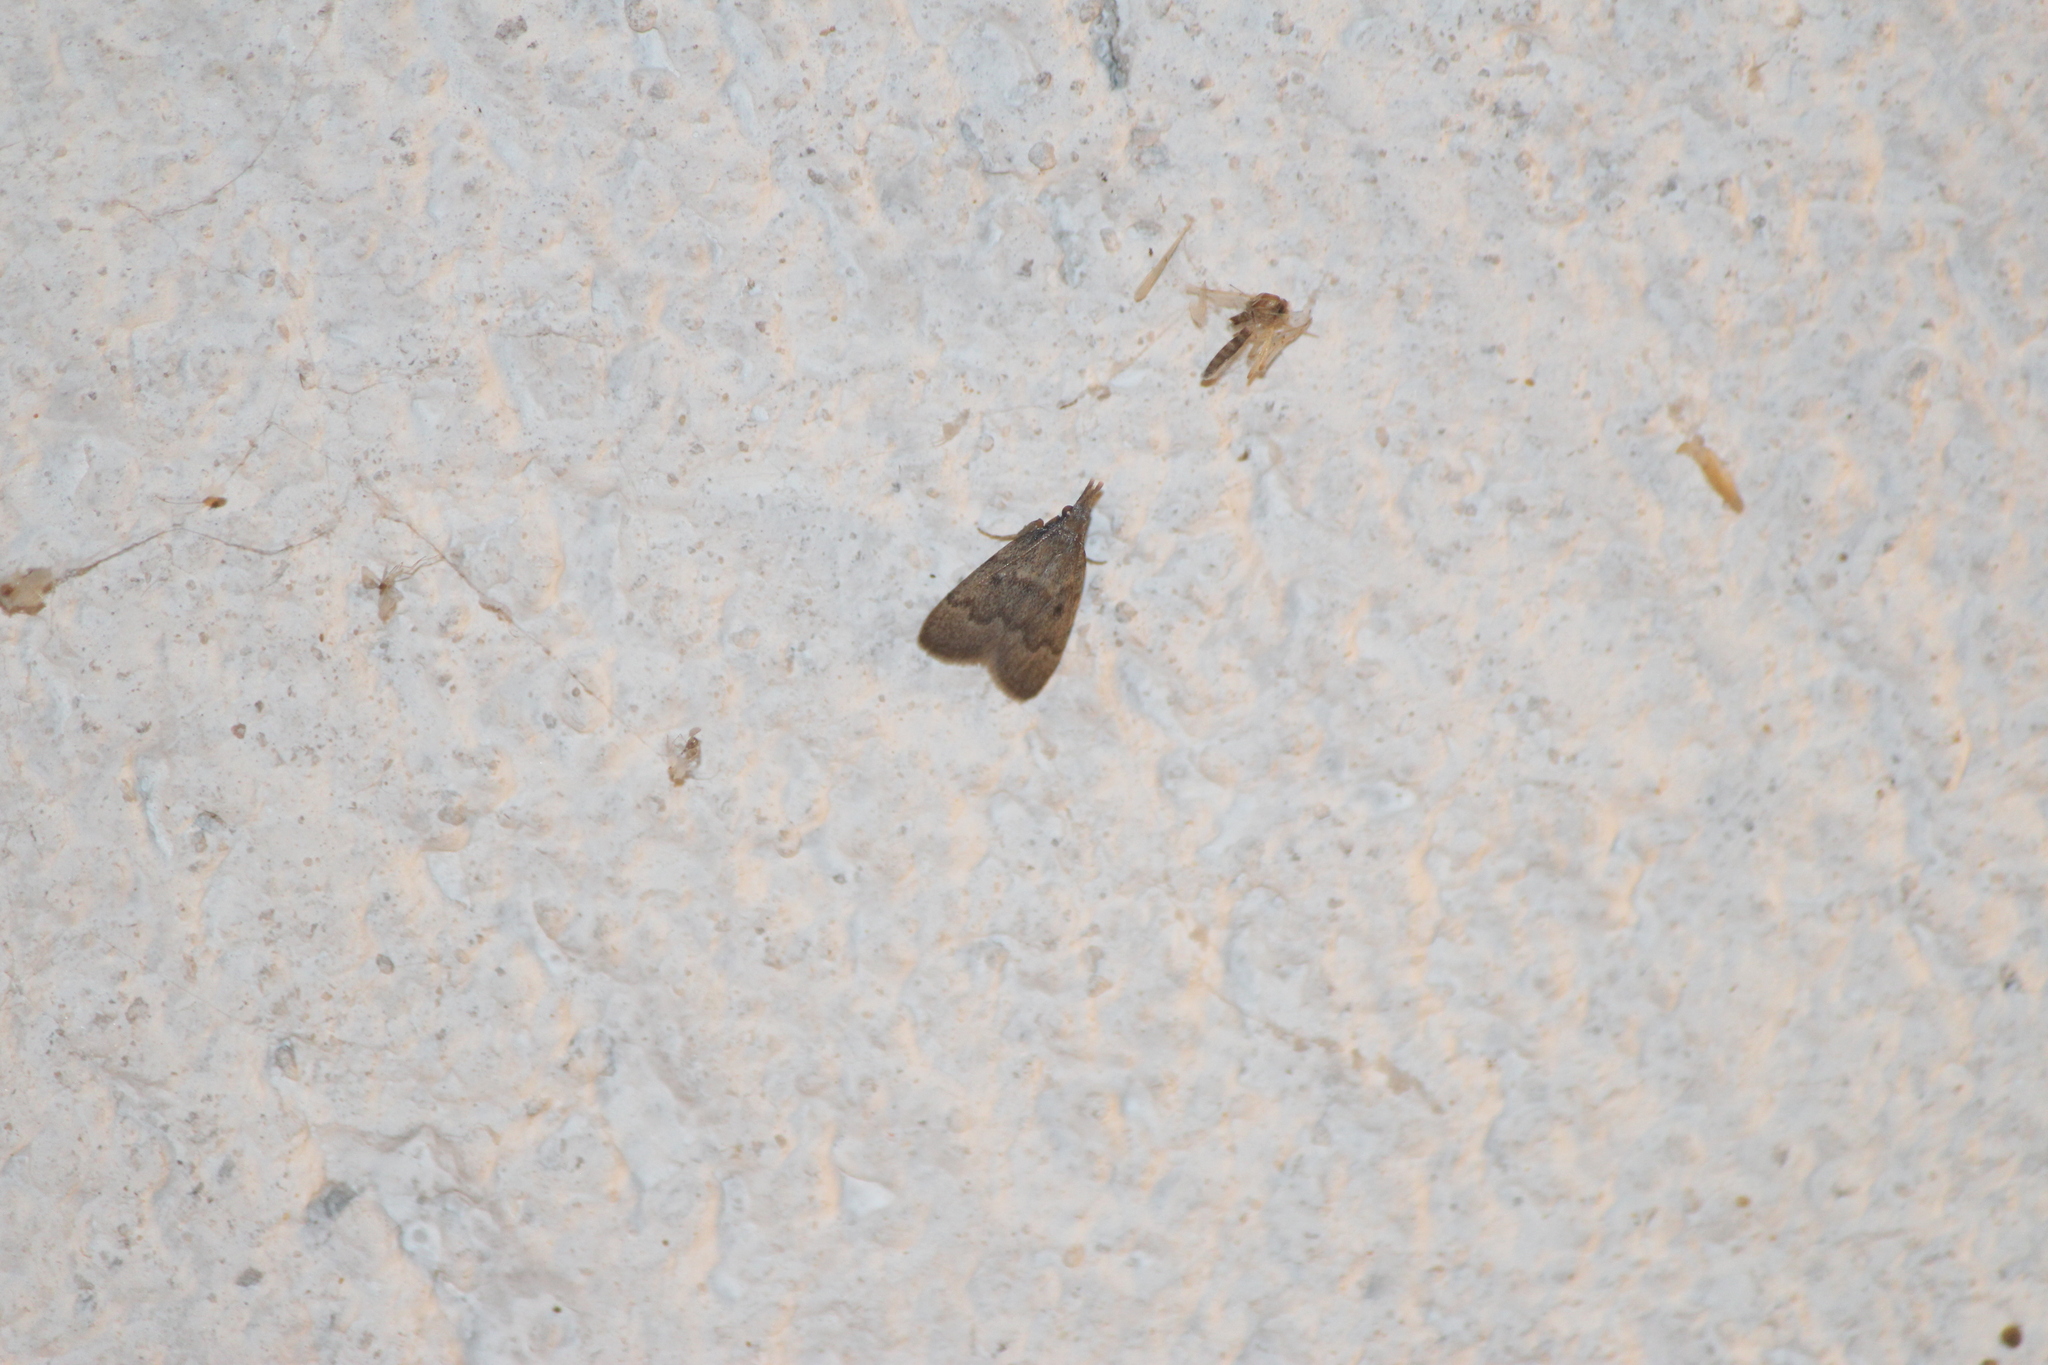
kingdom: Animalia
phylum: Arthropoda
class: Insecta
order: Lepidoptera
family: Crambidae
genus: Uresiphita
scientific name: Uresiphita reversalis
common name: Genista broom moth
